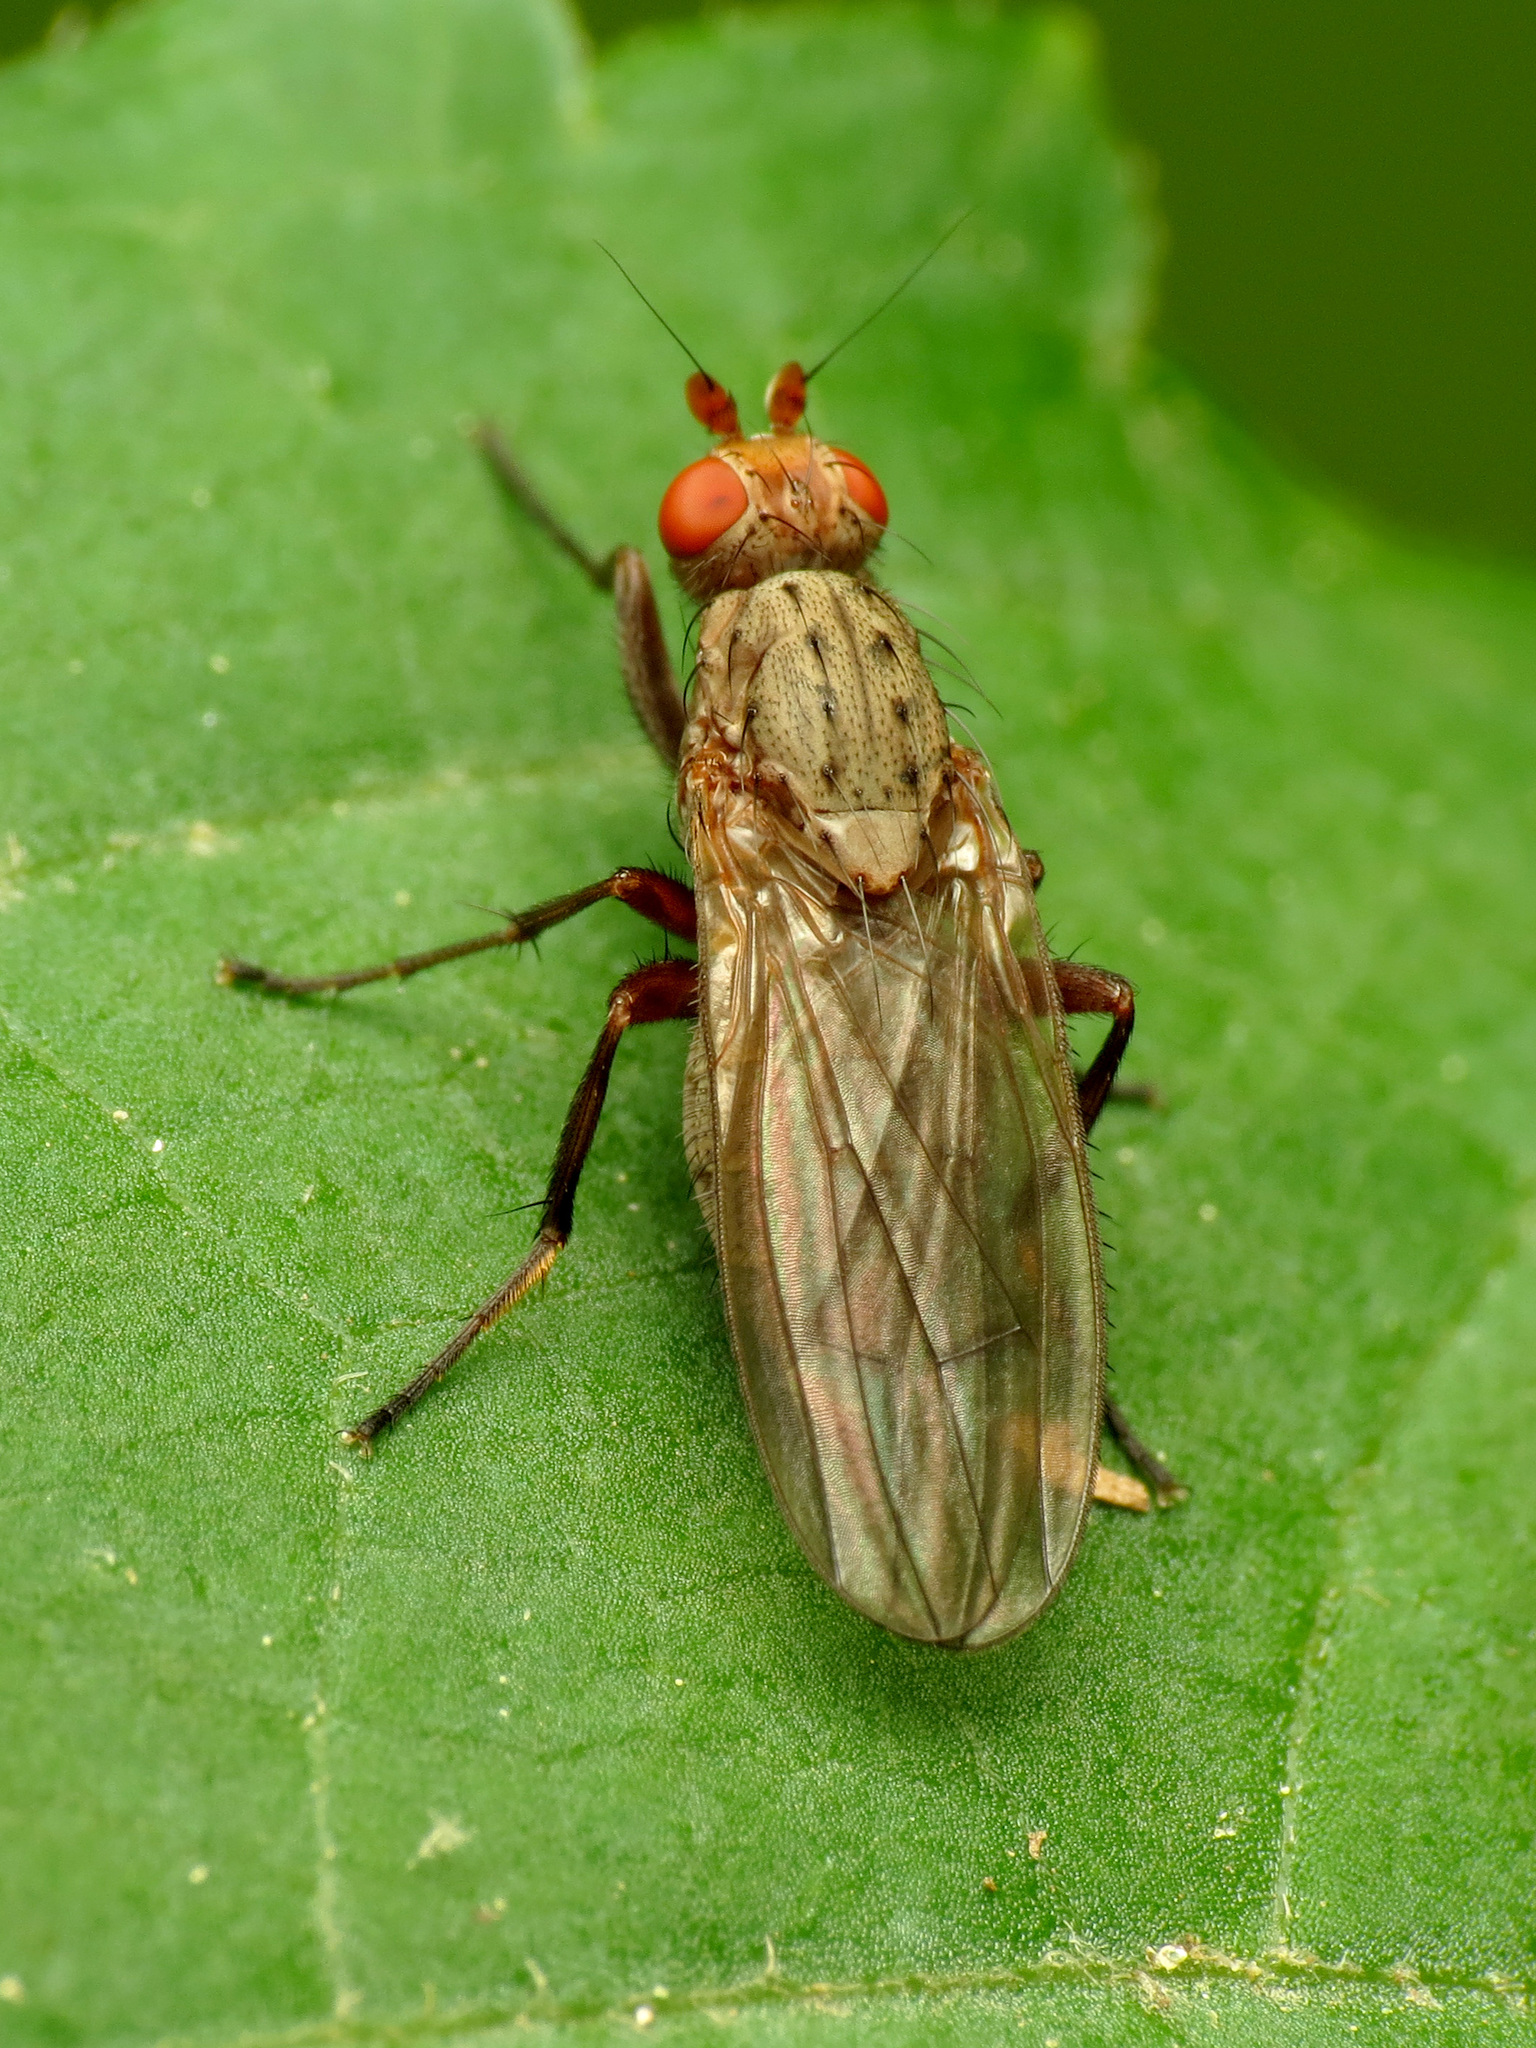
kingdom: Animalia
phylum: Arthropoda
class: Insecta
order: Diptera
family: Heleomyzidae
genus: Amoebaleria
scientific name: Amoebaleria defessa
